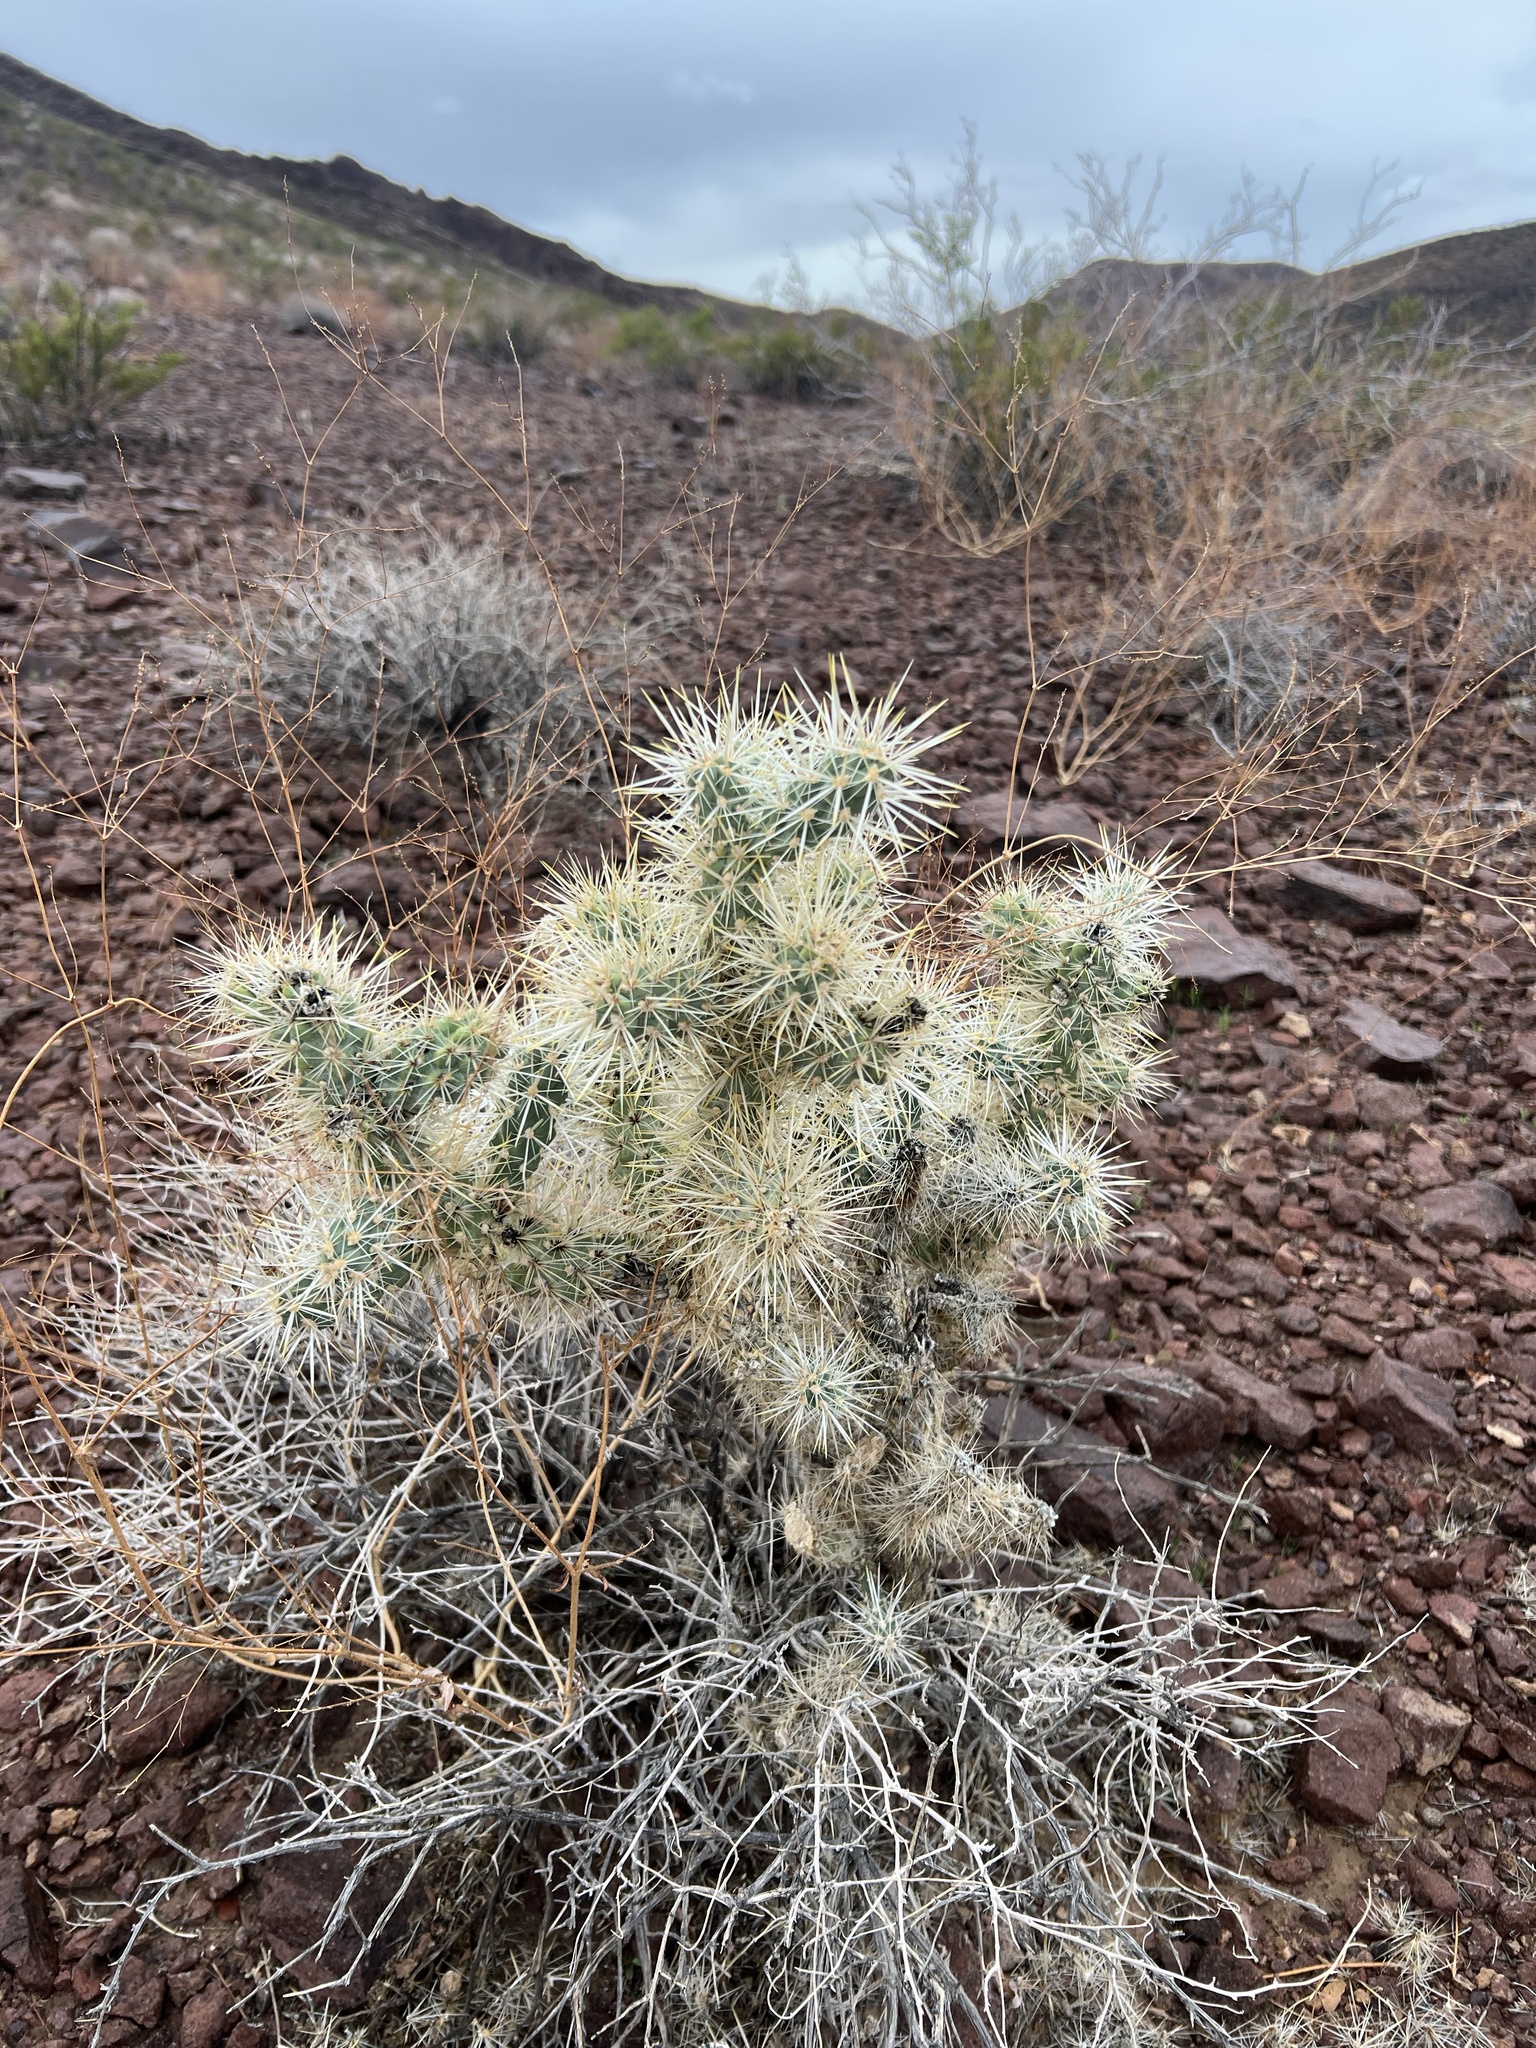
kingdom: Plantae
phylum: Tracheophyta
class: Magnoliopsida
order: Caryophyllales
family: Cactaceae
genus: Cylindropuntia
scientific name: Cylindropuntia echinocarpa
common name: Ground cholla
